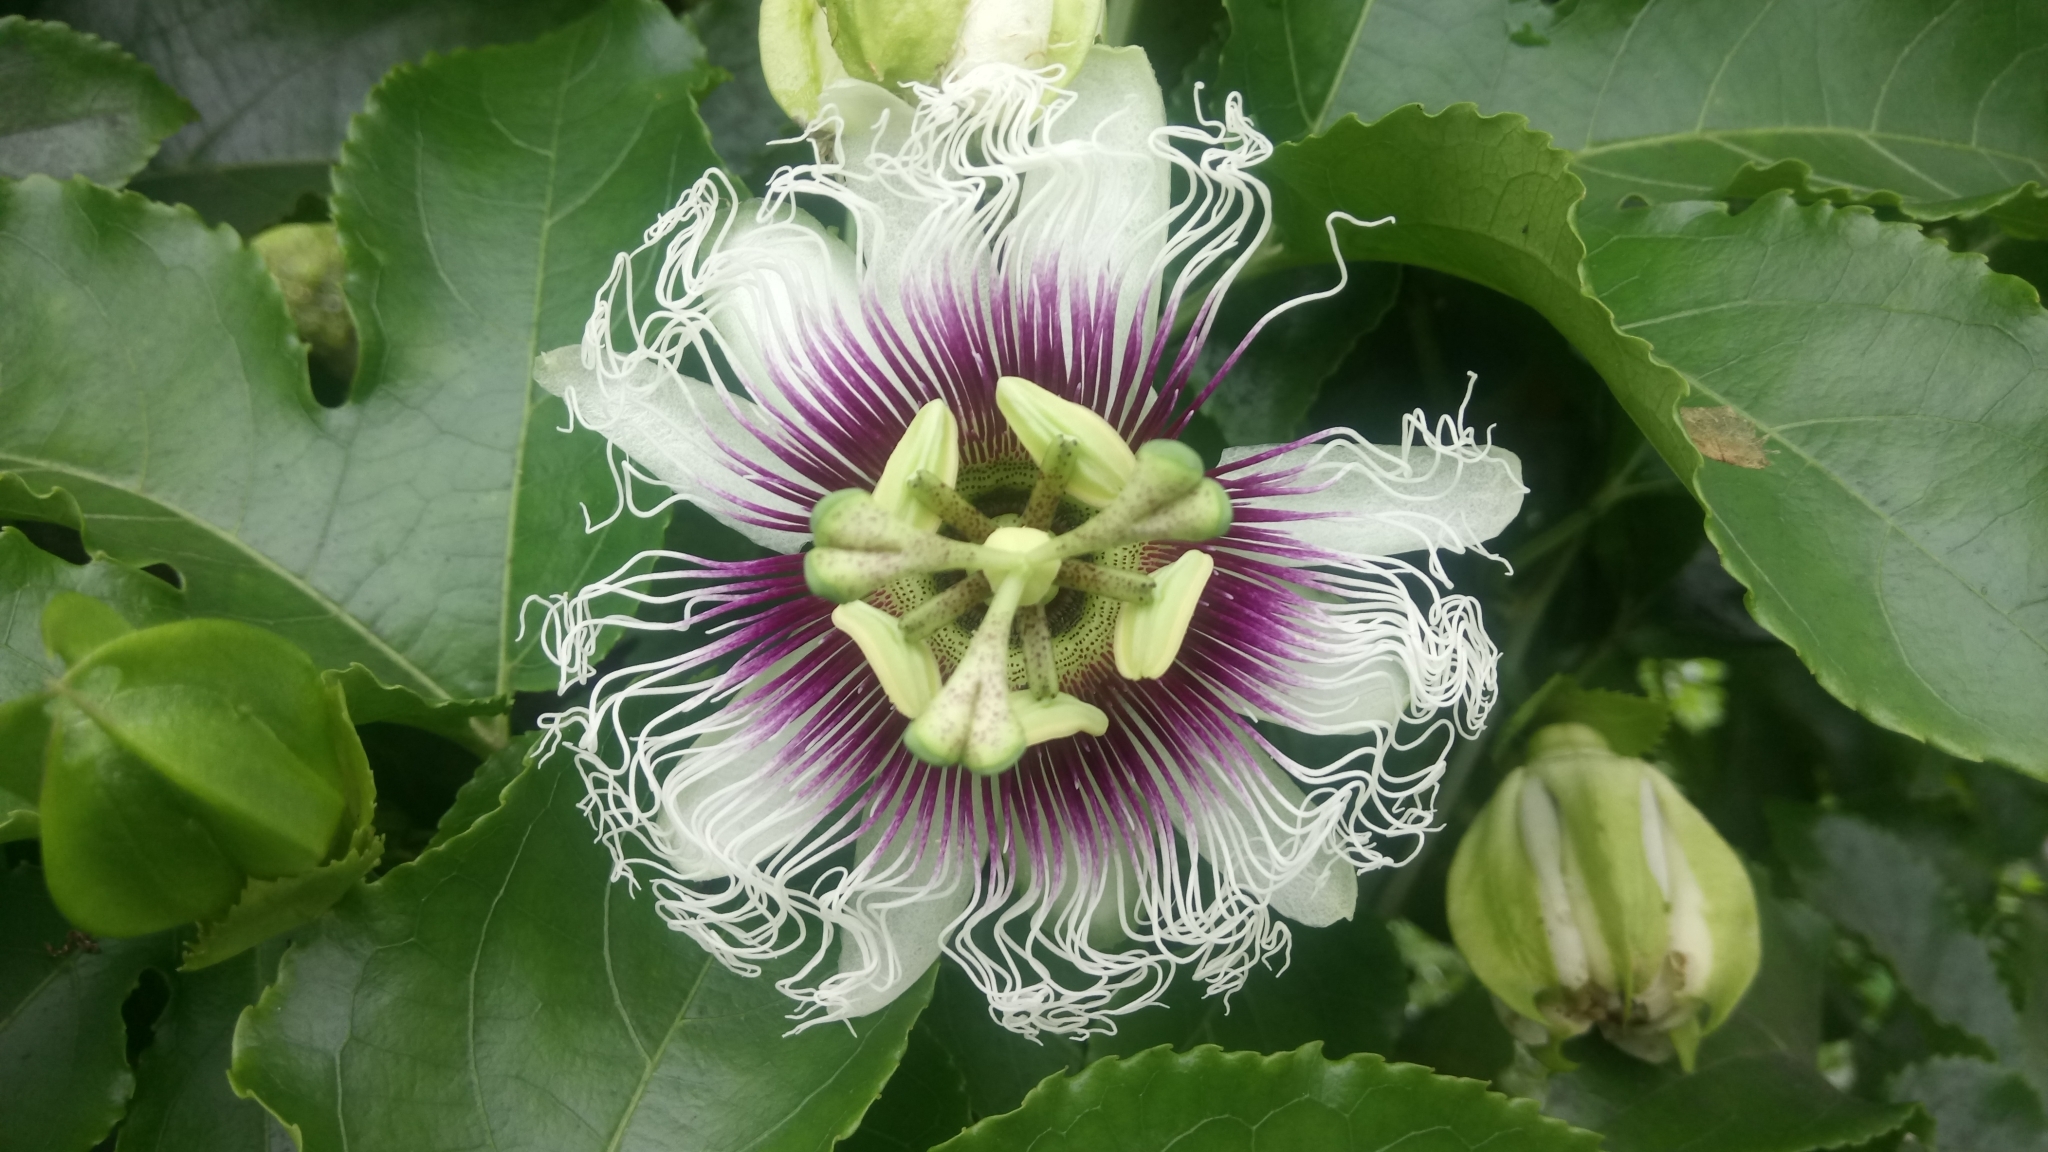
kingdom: Plantae
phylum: Tracheophyta
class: Magnoliopsida
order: Malpighiales
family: Passifloraceae
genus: Passiflora
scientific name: Passiflora edulis
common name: Purple granadilla
